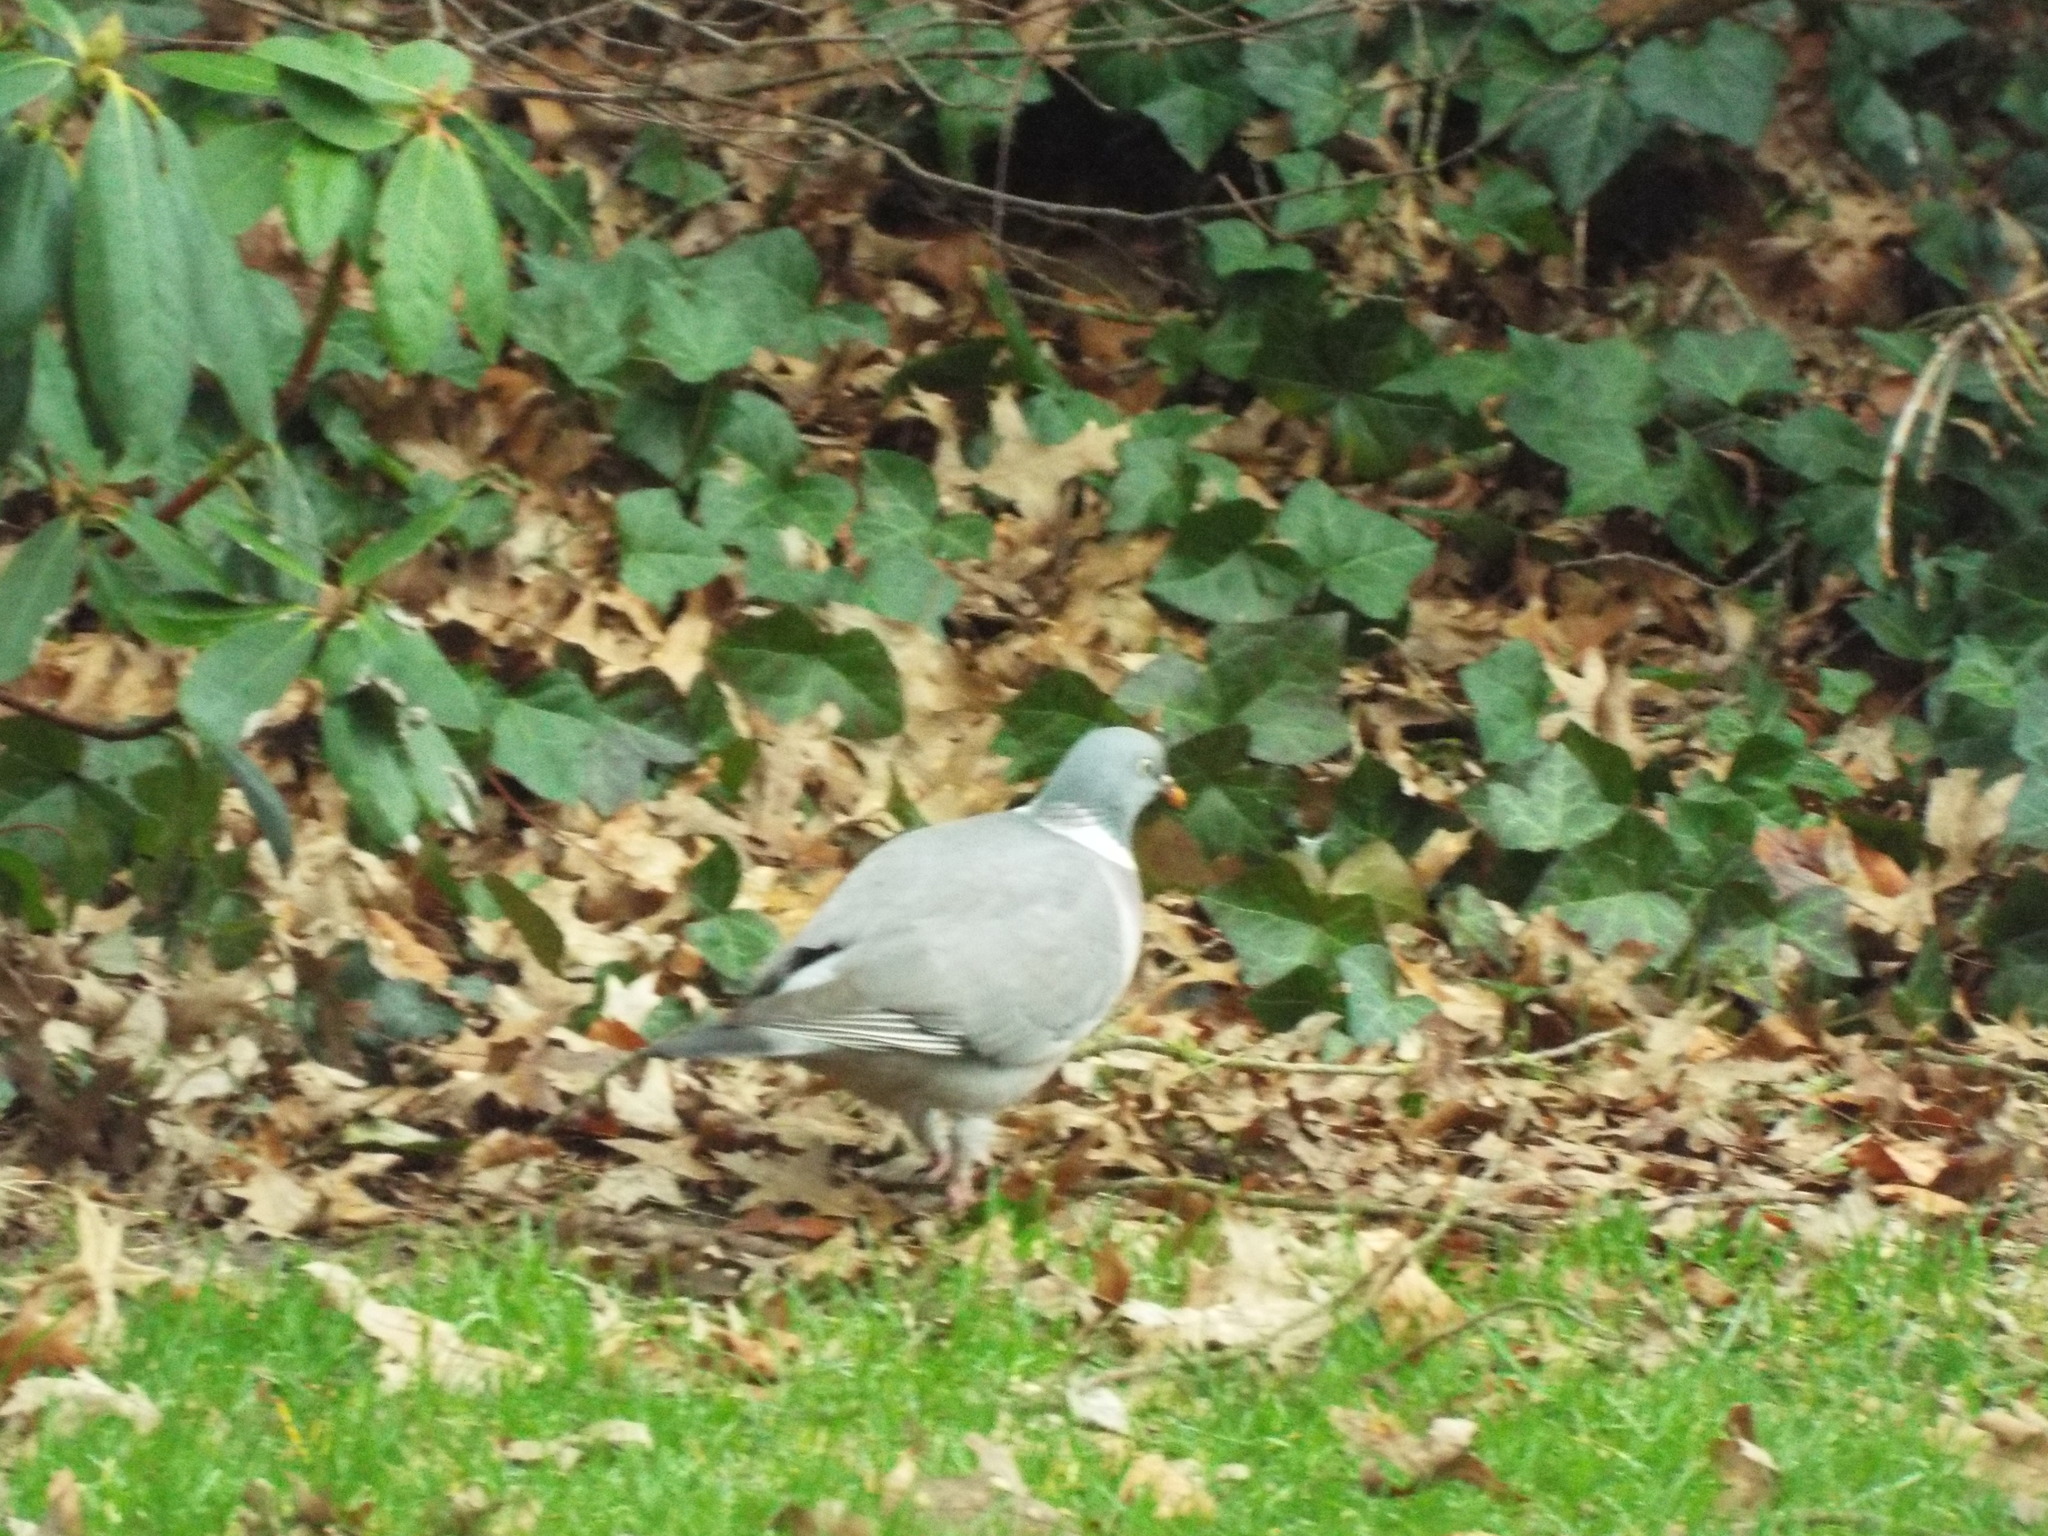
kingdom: Animalia
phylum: Chordata
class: Aves
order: Columbiformes
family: Columbidae
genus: Columba
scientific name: Columba palumbus
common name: Common wood pigeon
